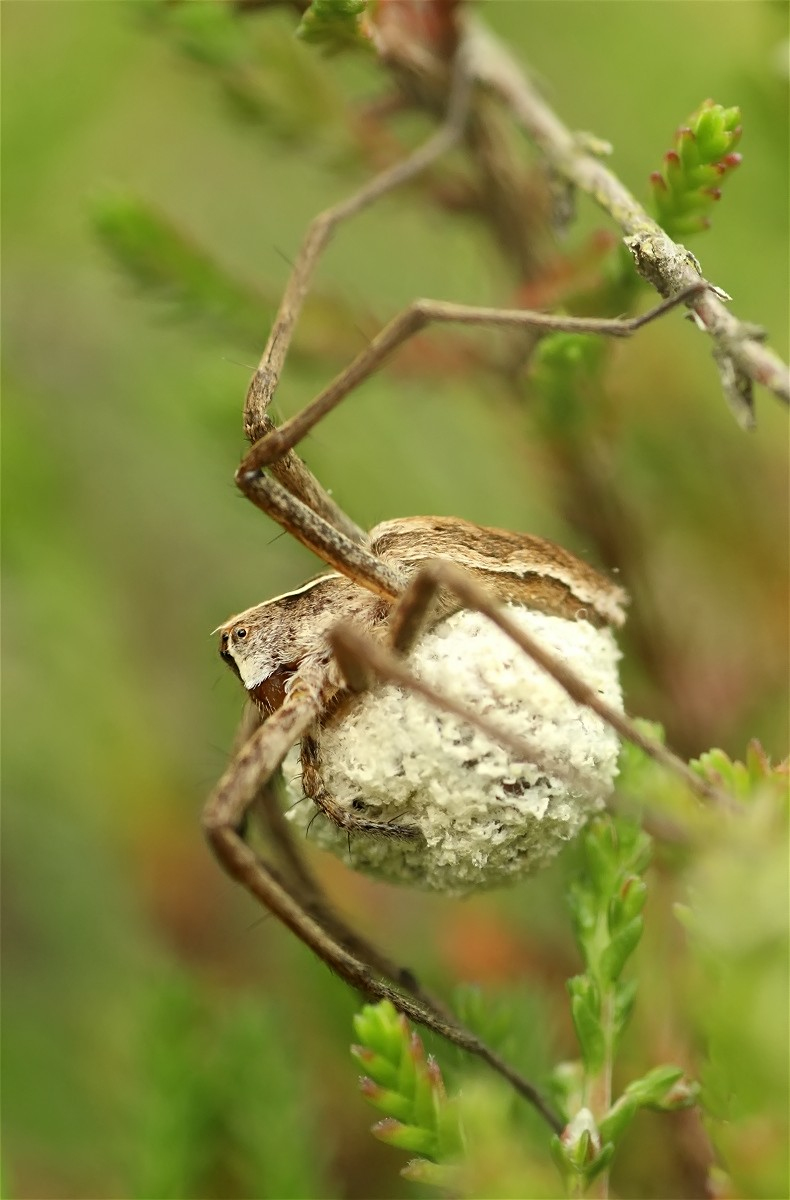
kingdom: Animalia
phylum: Arthropoda
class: Arachnida
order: Araneae
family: Pisauridae
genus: Pisaura
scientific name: Pisaura mirabilis
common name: Tent spider
